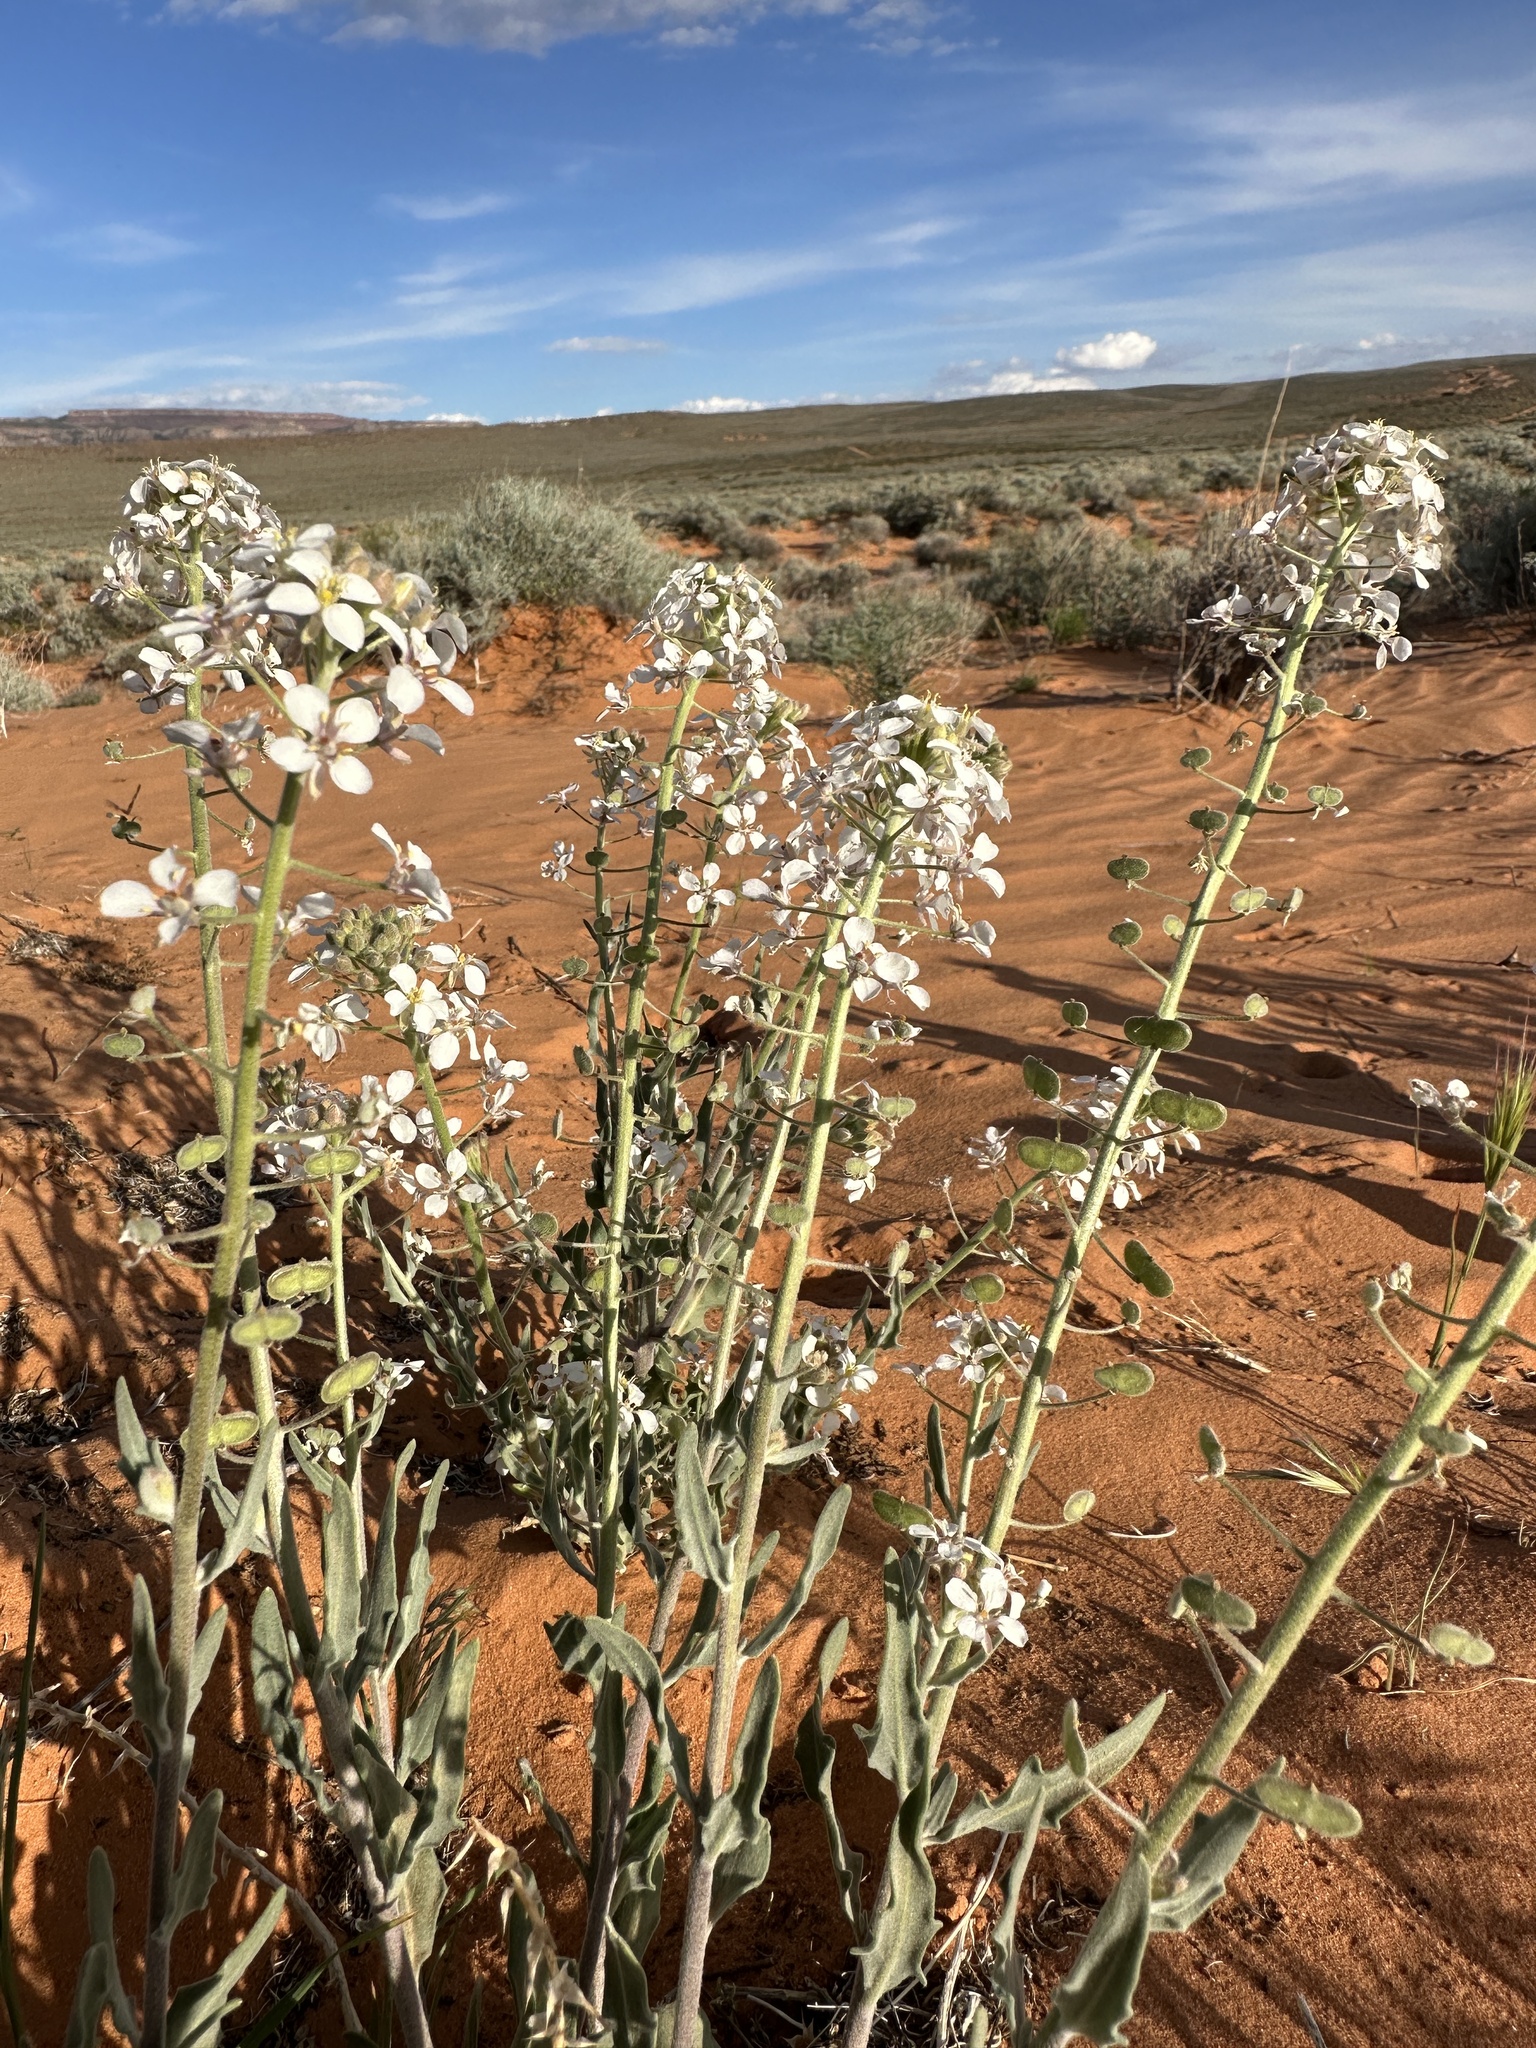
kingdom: Plantae
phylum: Tracheophyta
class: Magnoliopsida
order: Brassicales
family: Brassicaceae
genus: Dimorphocarpa
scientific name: Dimorphocarpa wislizenii
